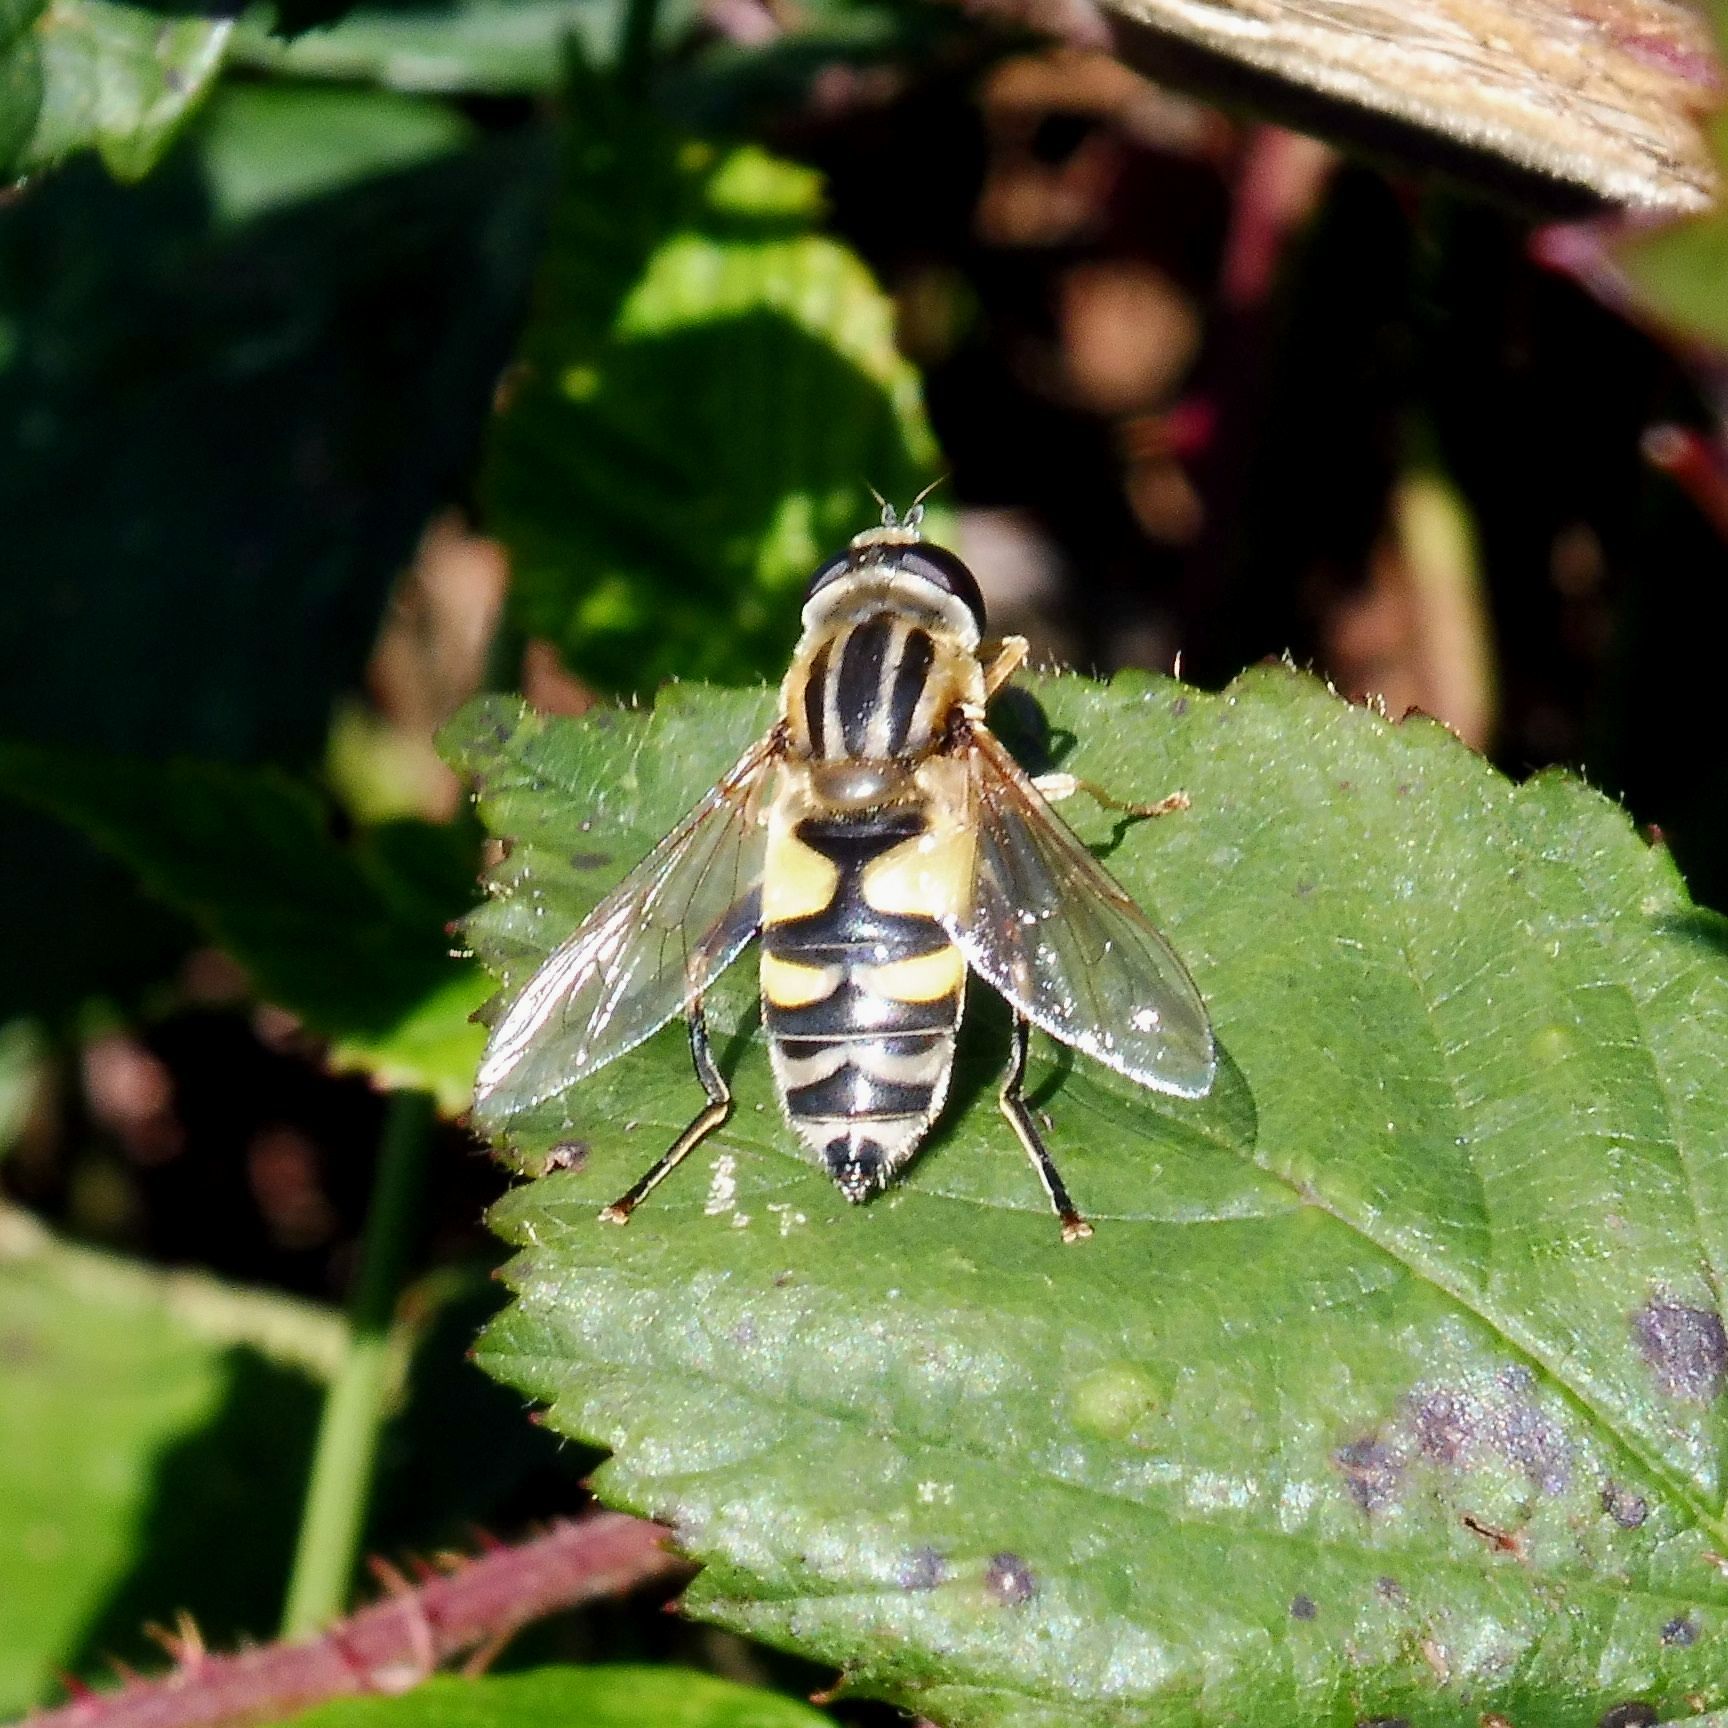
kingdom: Animalia
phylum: Arthropoda
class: Insecta
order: Diptera
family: Syrphidae
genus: Helophilus
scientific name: Helophilus trivittatus
